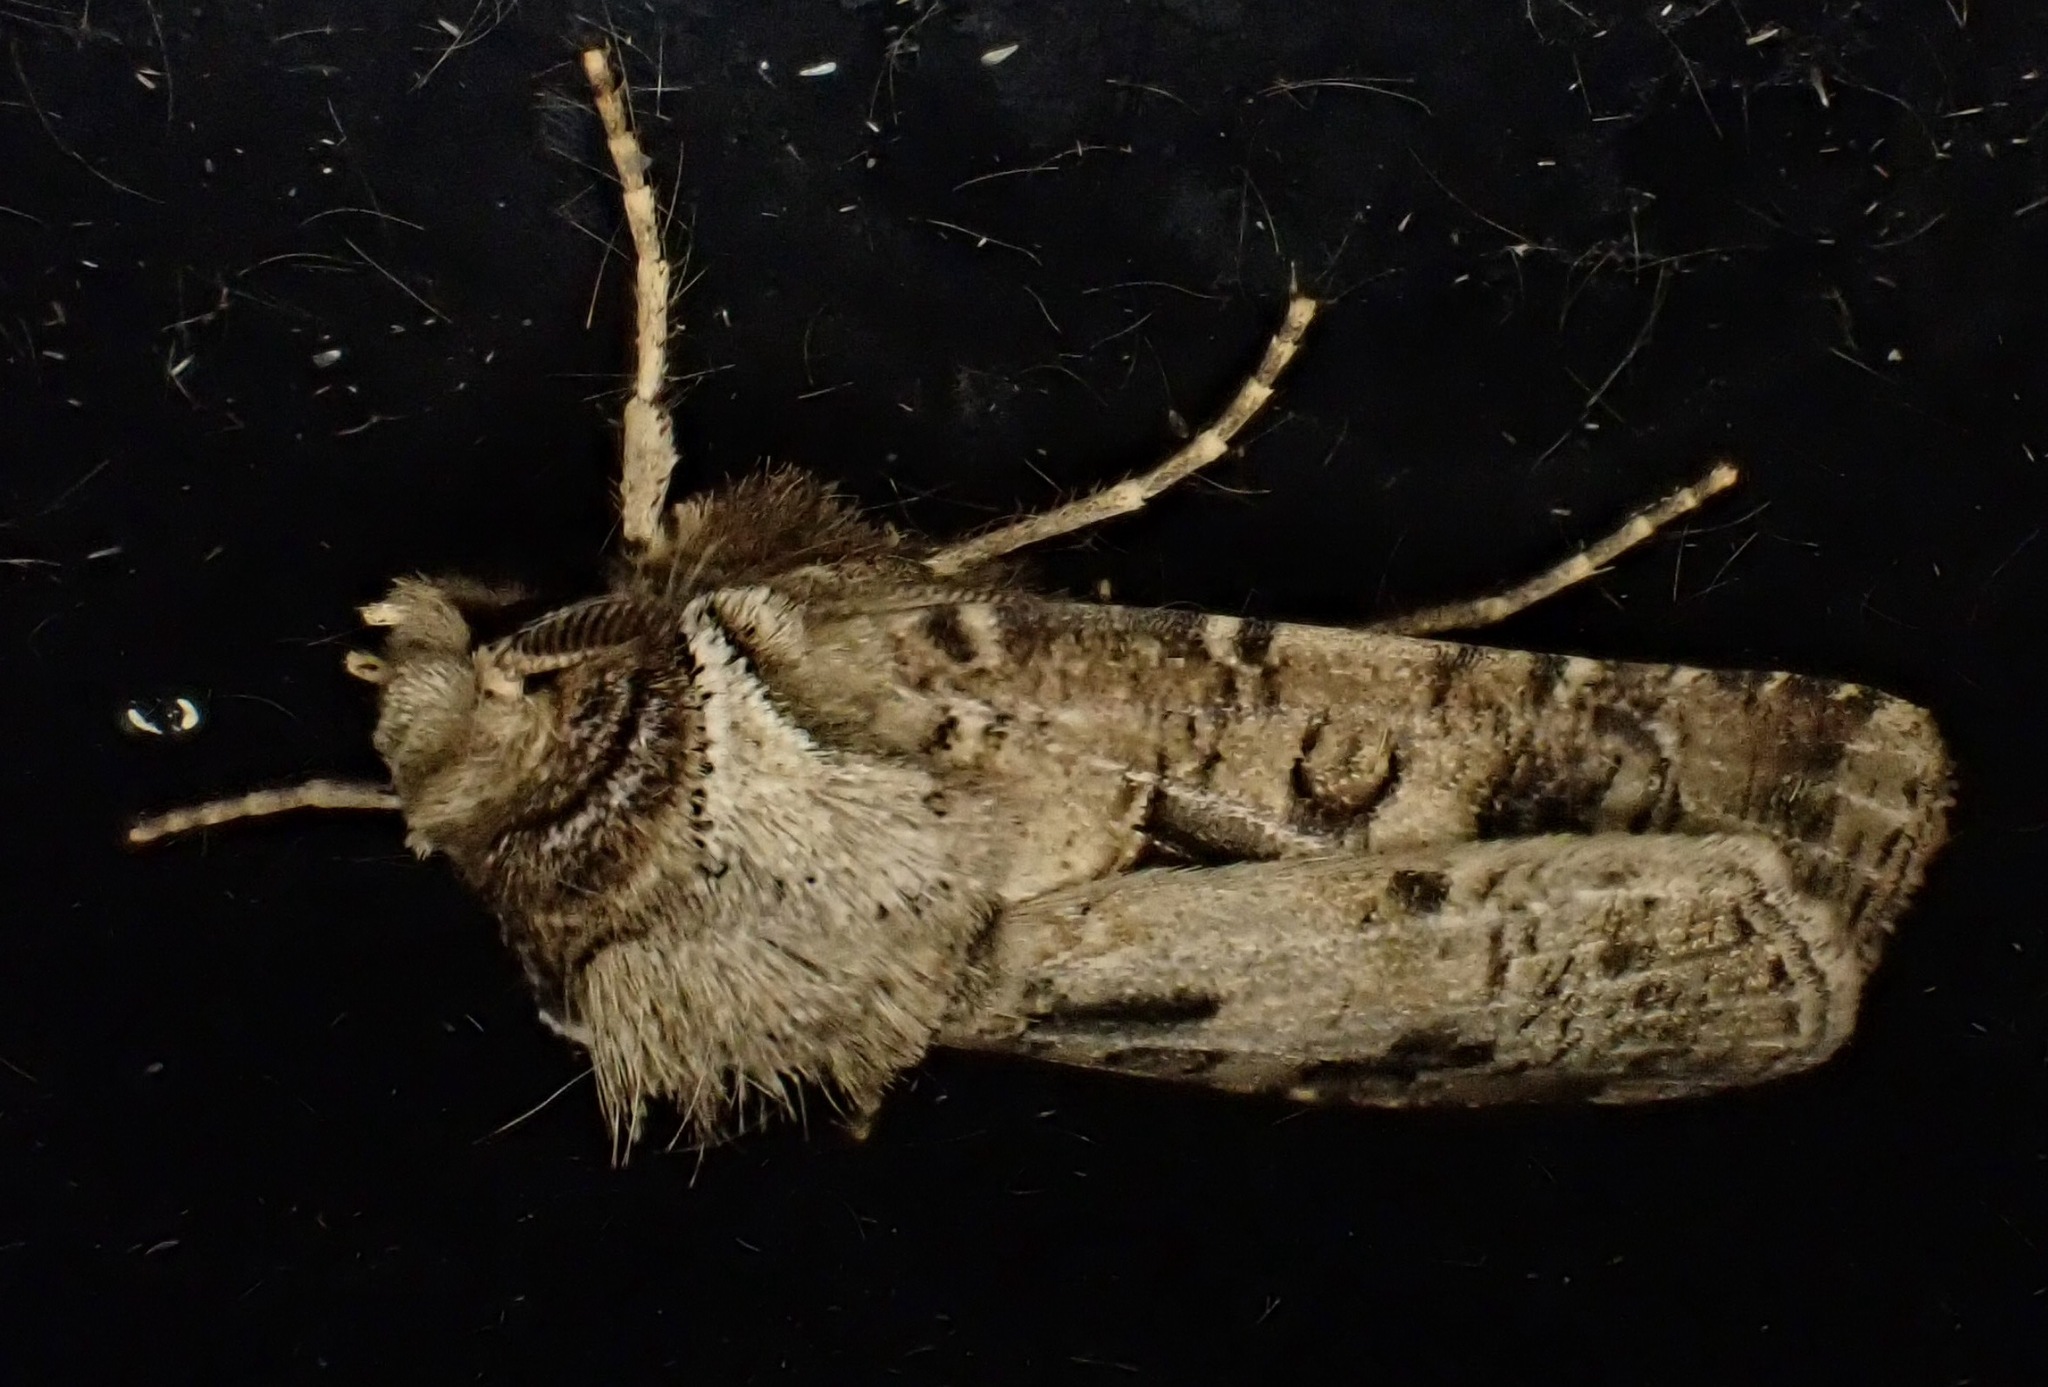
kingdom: Animalia
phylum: Arthropoda
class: Insecta
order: Lepidoptera
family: Noctuidae
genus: Agrotis
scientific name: Agrotis clavis
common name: Heart and club
